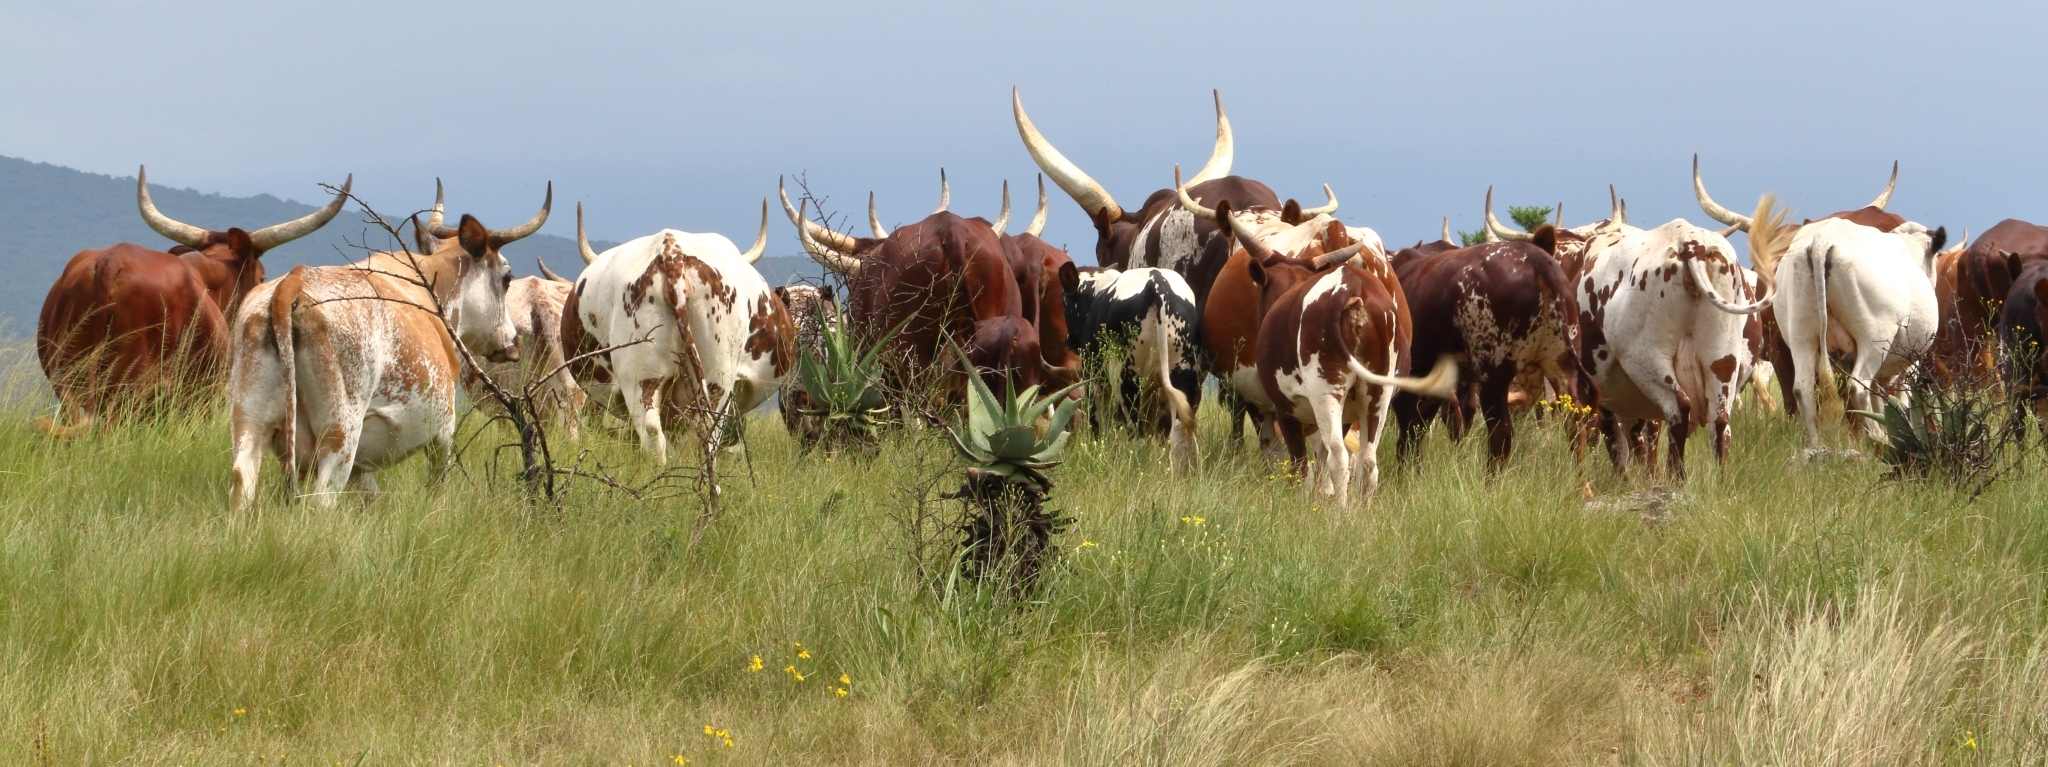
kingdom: Animalia
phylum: Chordata
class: Mammalia
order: Artiodactyla
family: Bovidae
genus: Bos
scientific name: Bos
